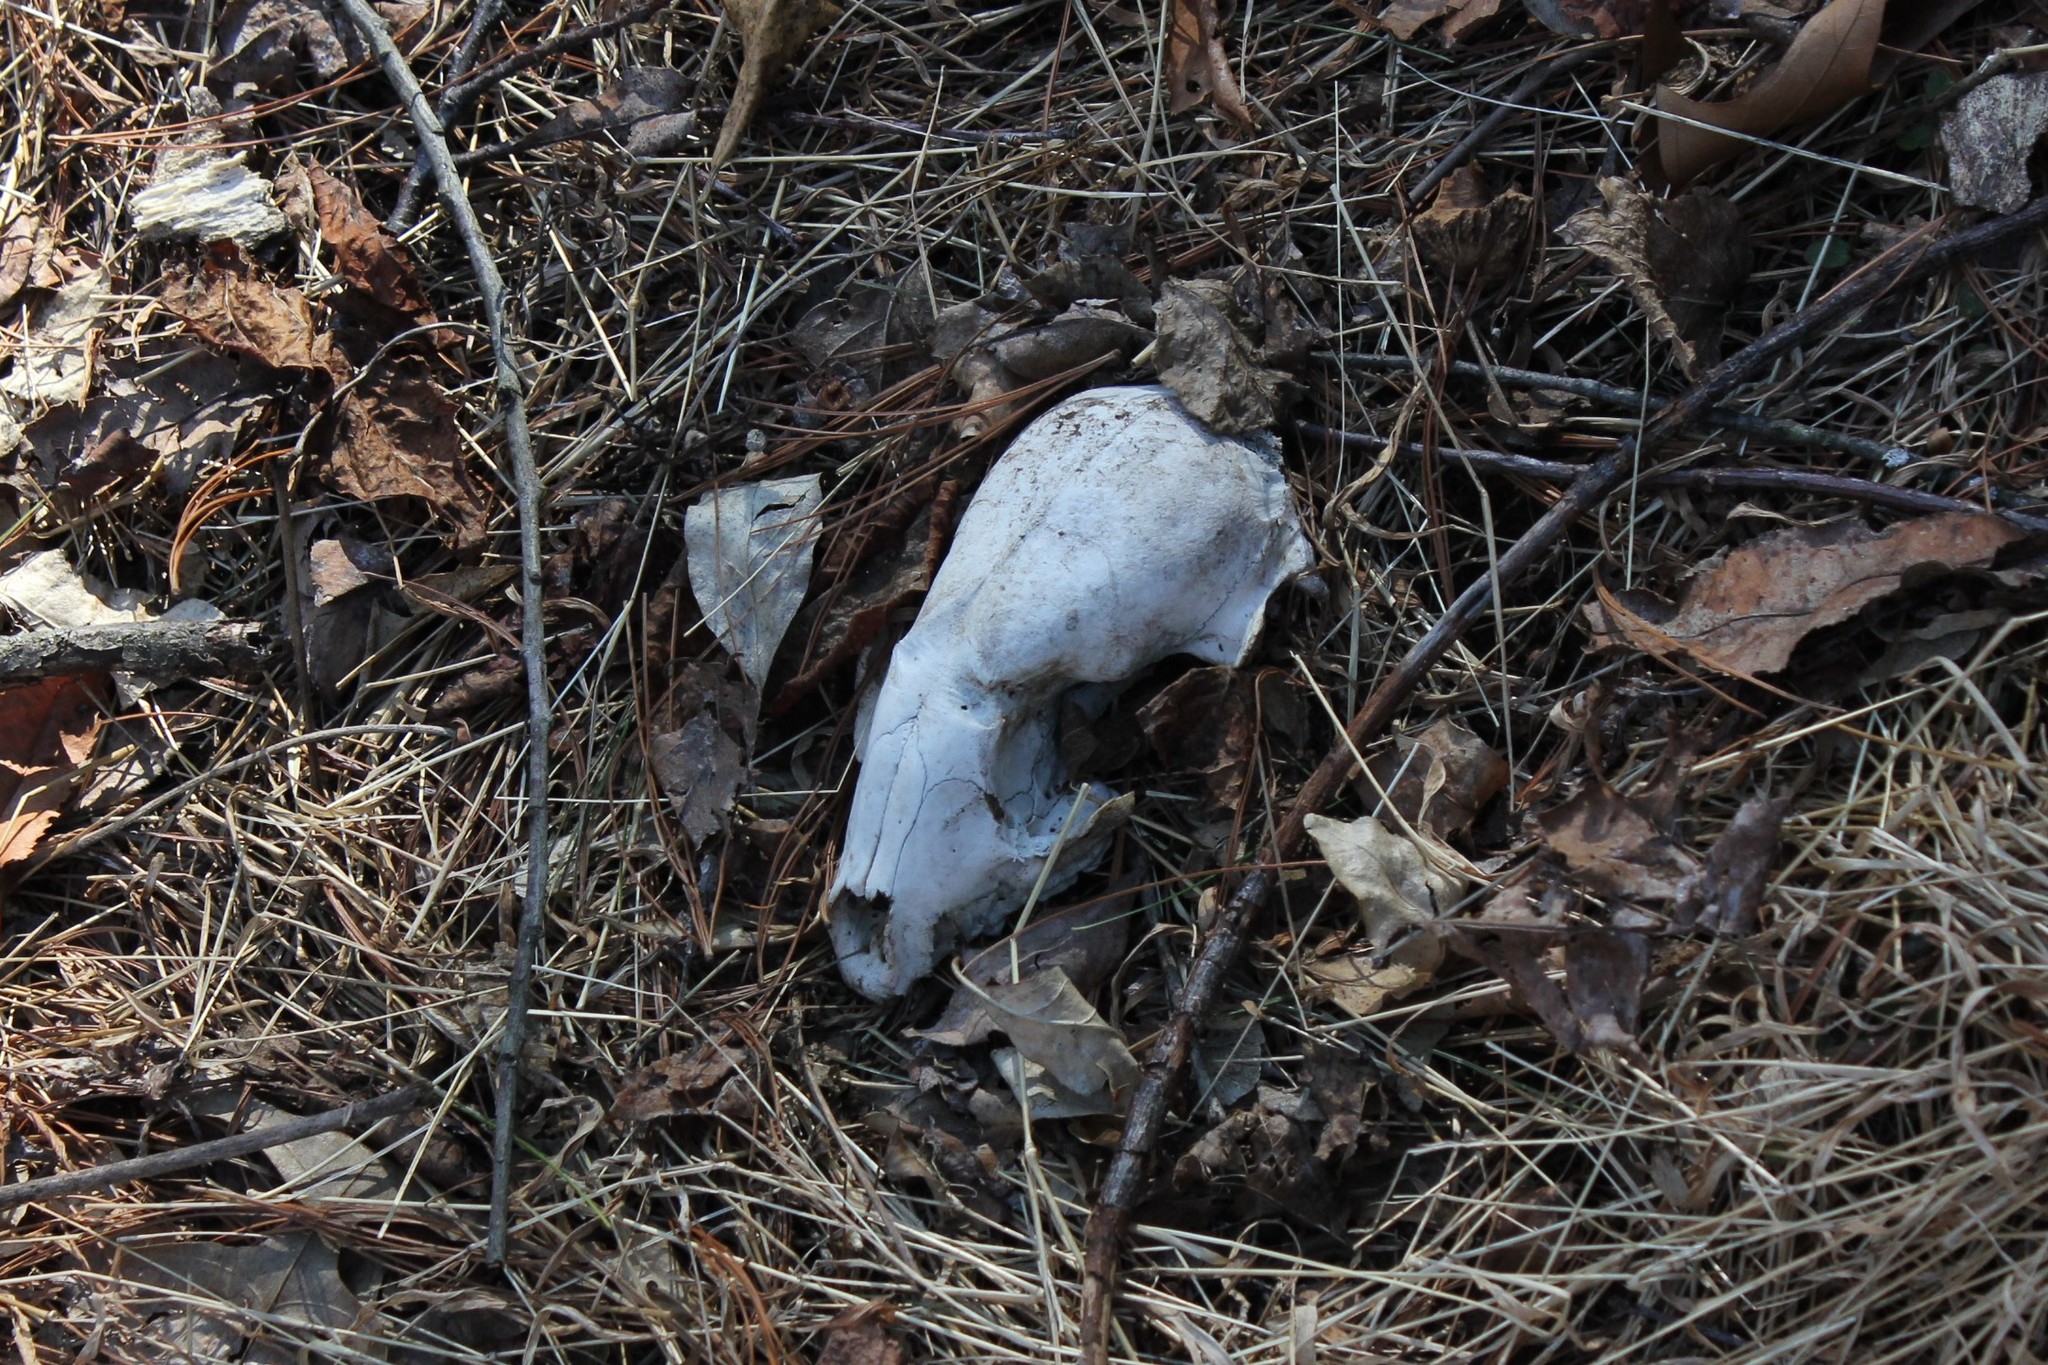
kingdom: Animalia
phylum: Chordata
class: Mammalia
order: Carnivora
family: Procyonidae
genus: Procyon
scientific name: Procyon lotor
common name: Raccoon
